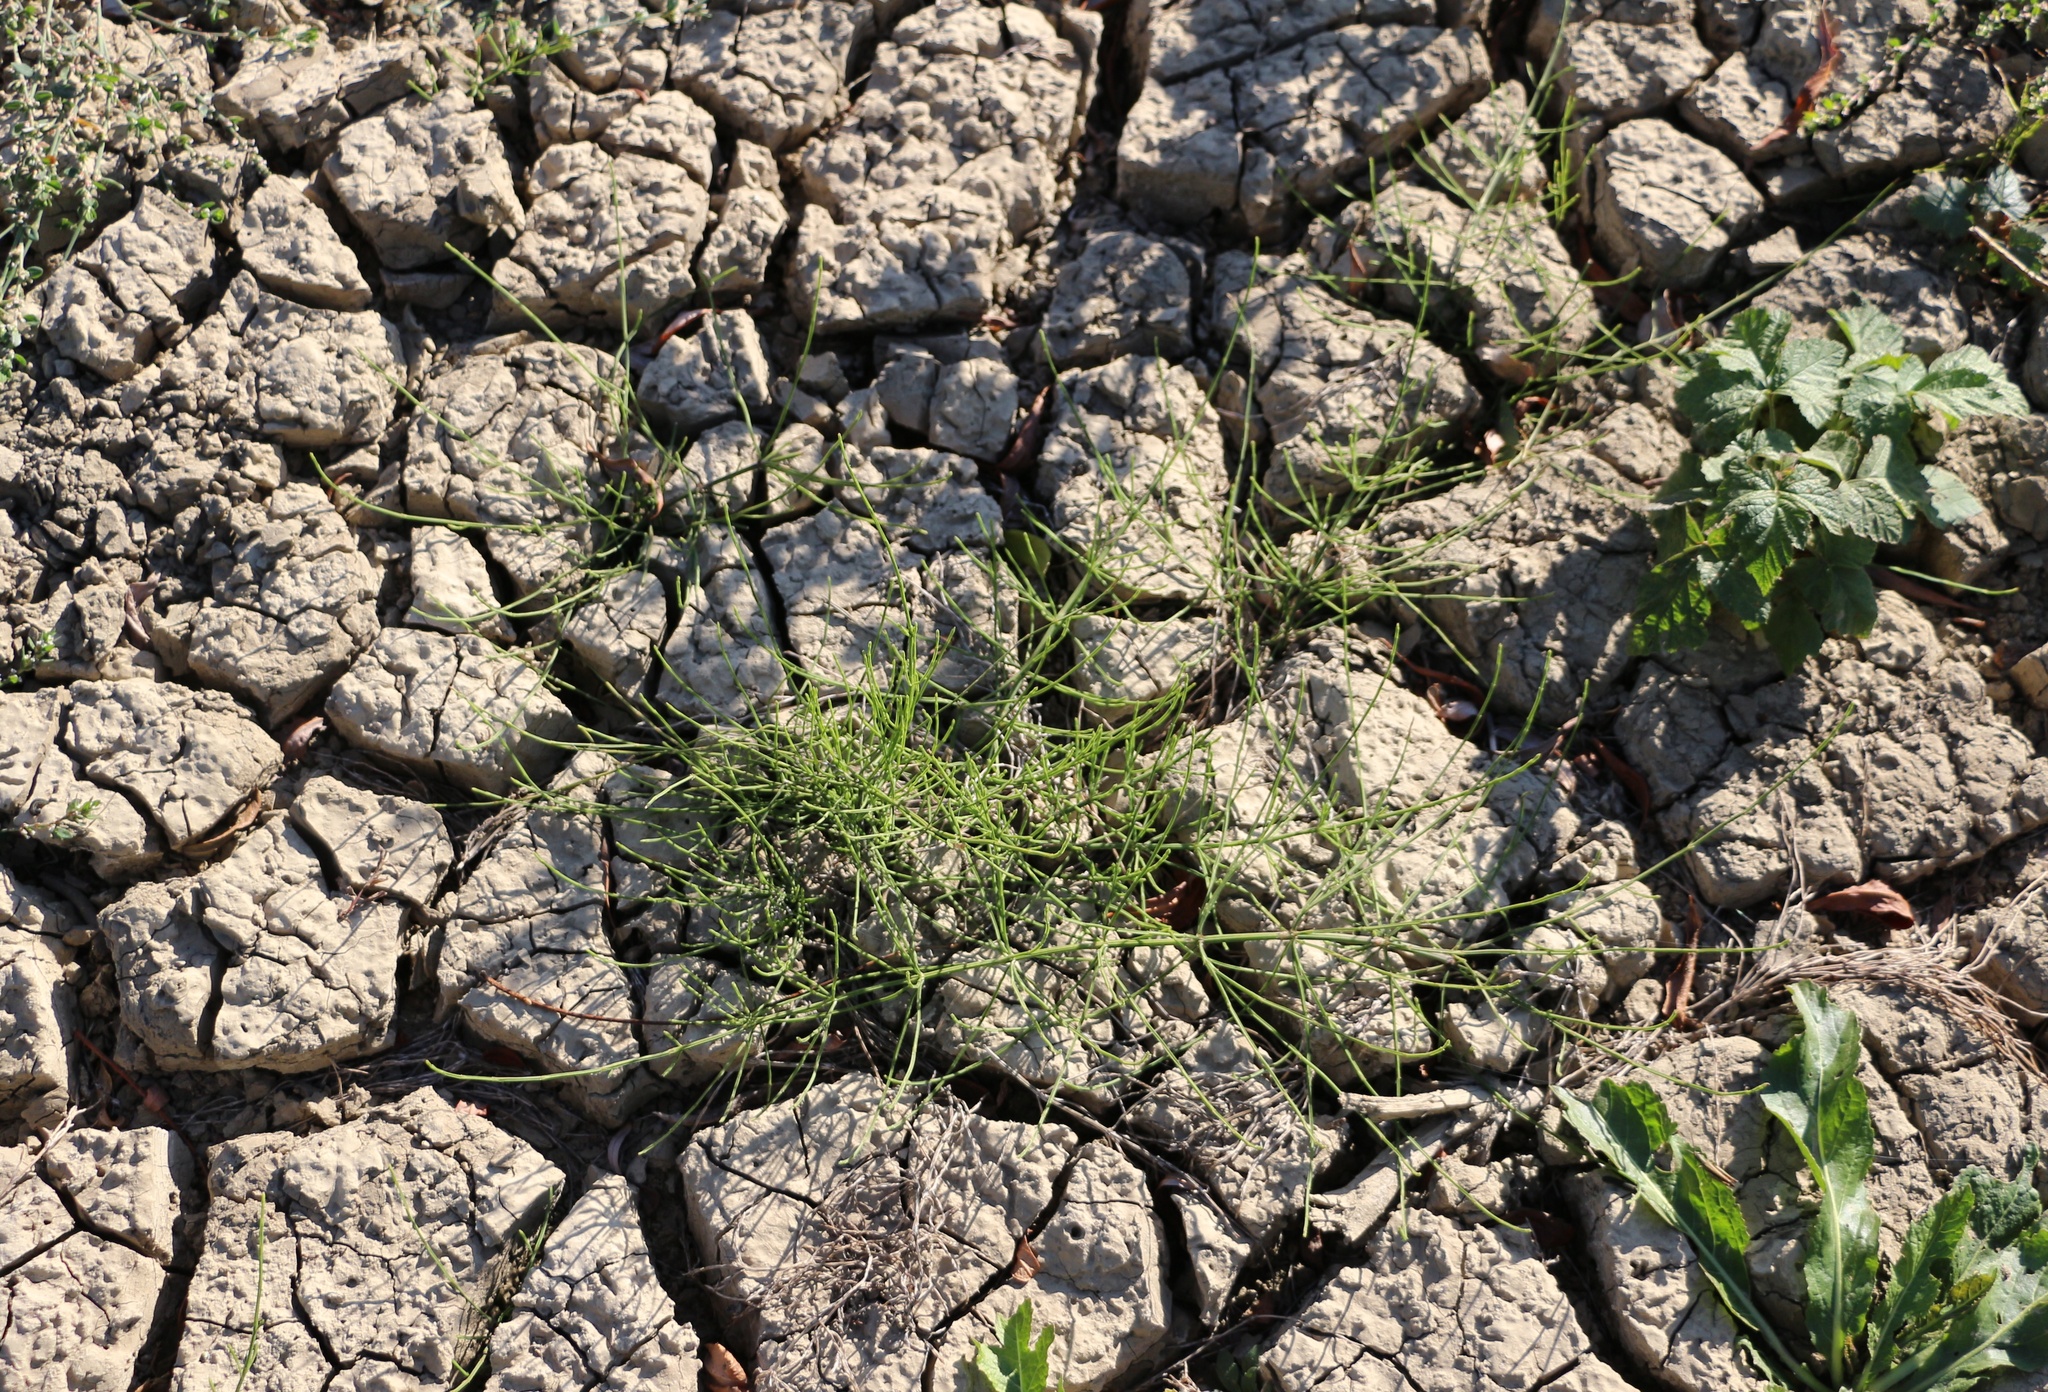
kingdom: Plantae
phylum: Tracheophyta
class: Polypodiopsida
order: Equisetales
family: Equisetaceae
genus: Equisetum
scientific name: Equisetum arvense
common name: Field horsetail
